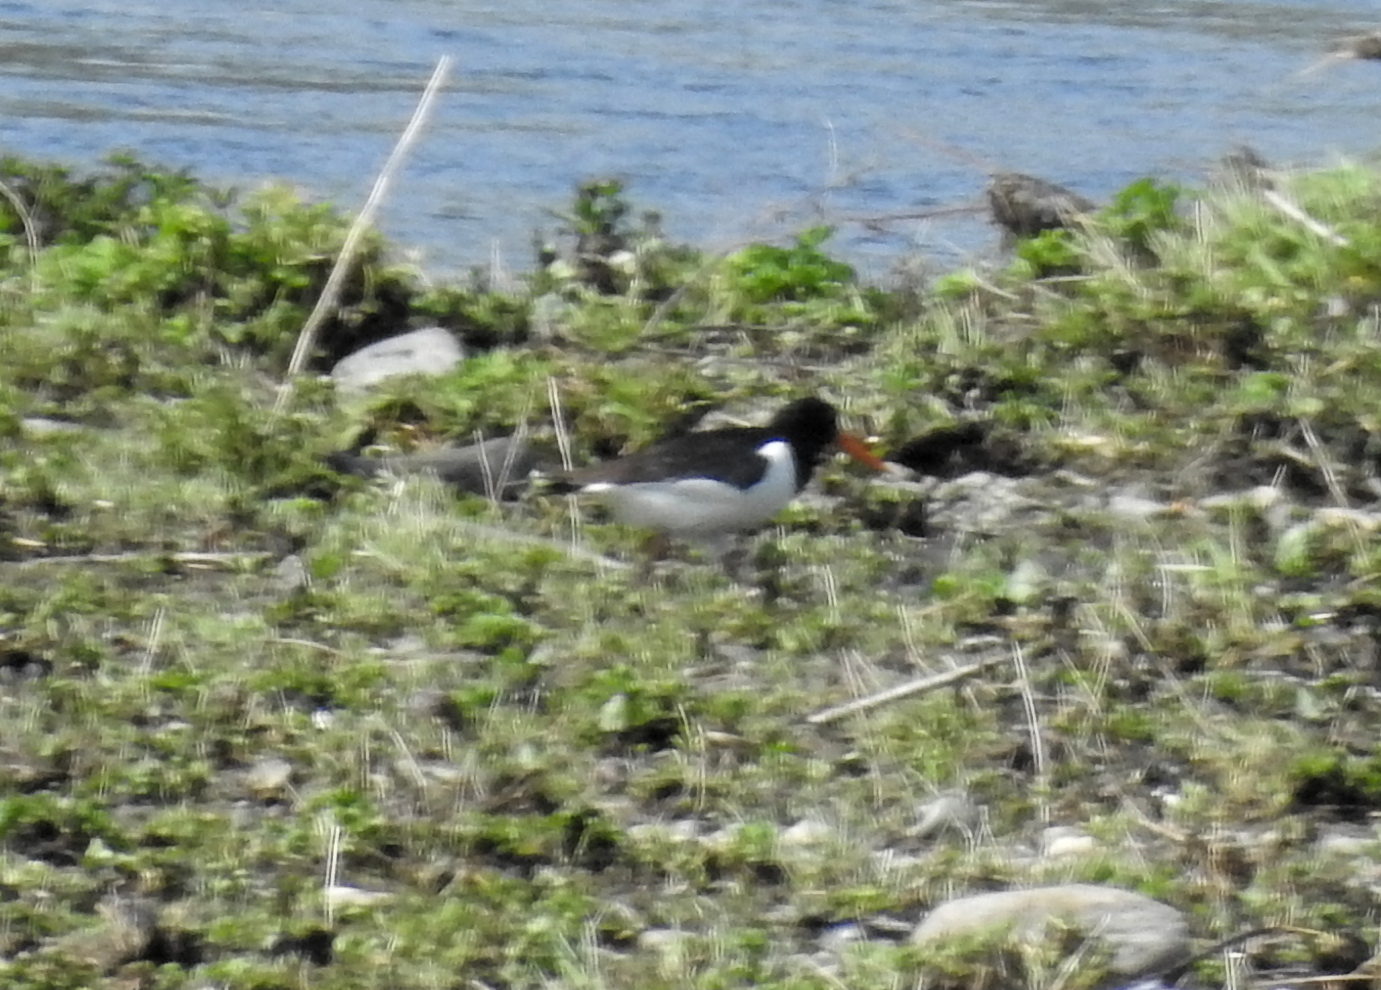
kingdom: Animalia
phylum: Chordata
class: Aves
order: Charadriiformes
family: Haematopodidae
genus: Haematopus
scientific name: Haematopus ostralegus
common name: Eurasian oystercatcher
